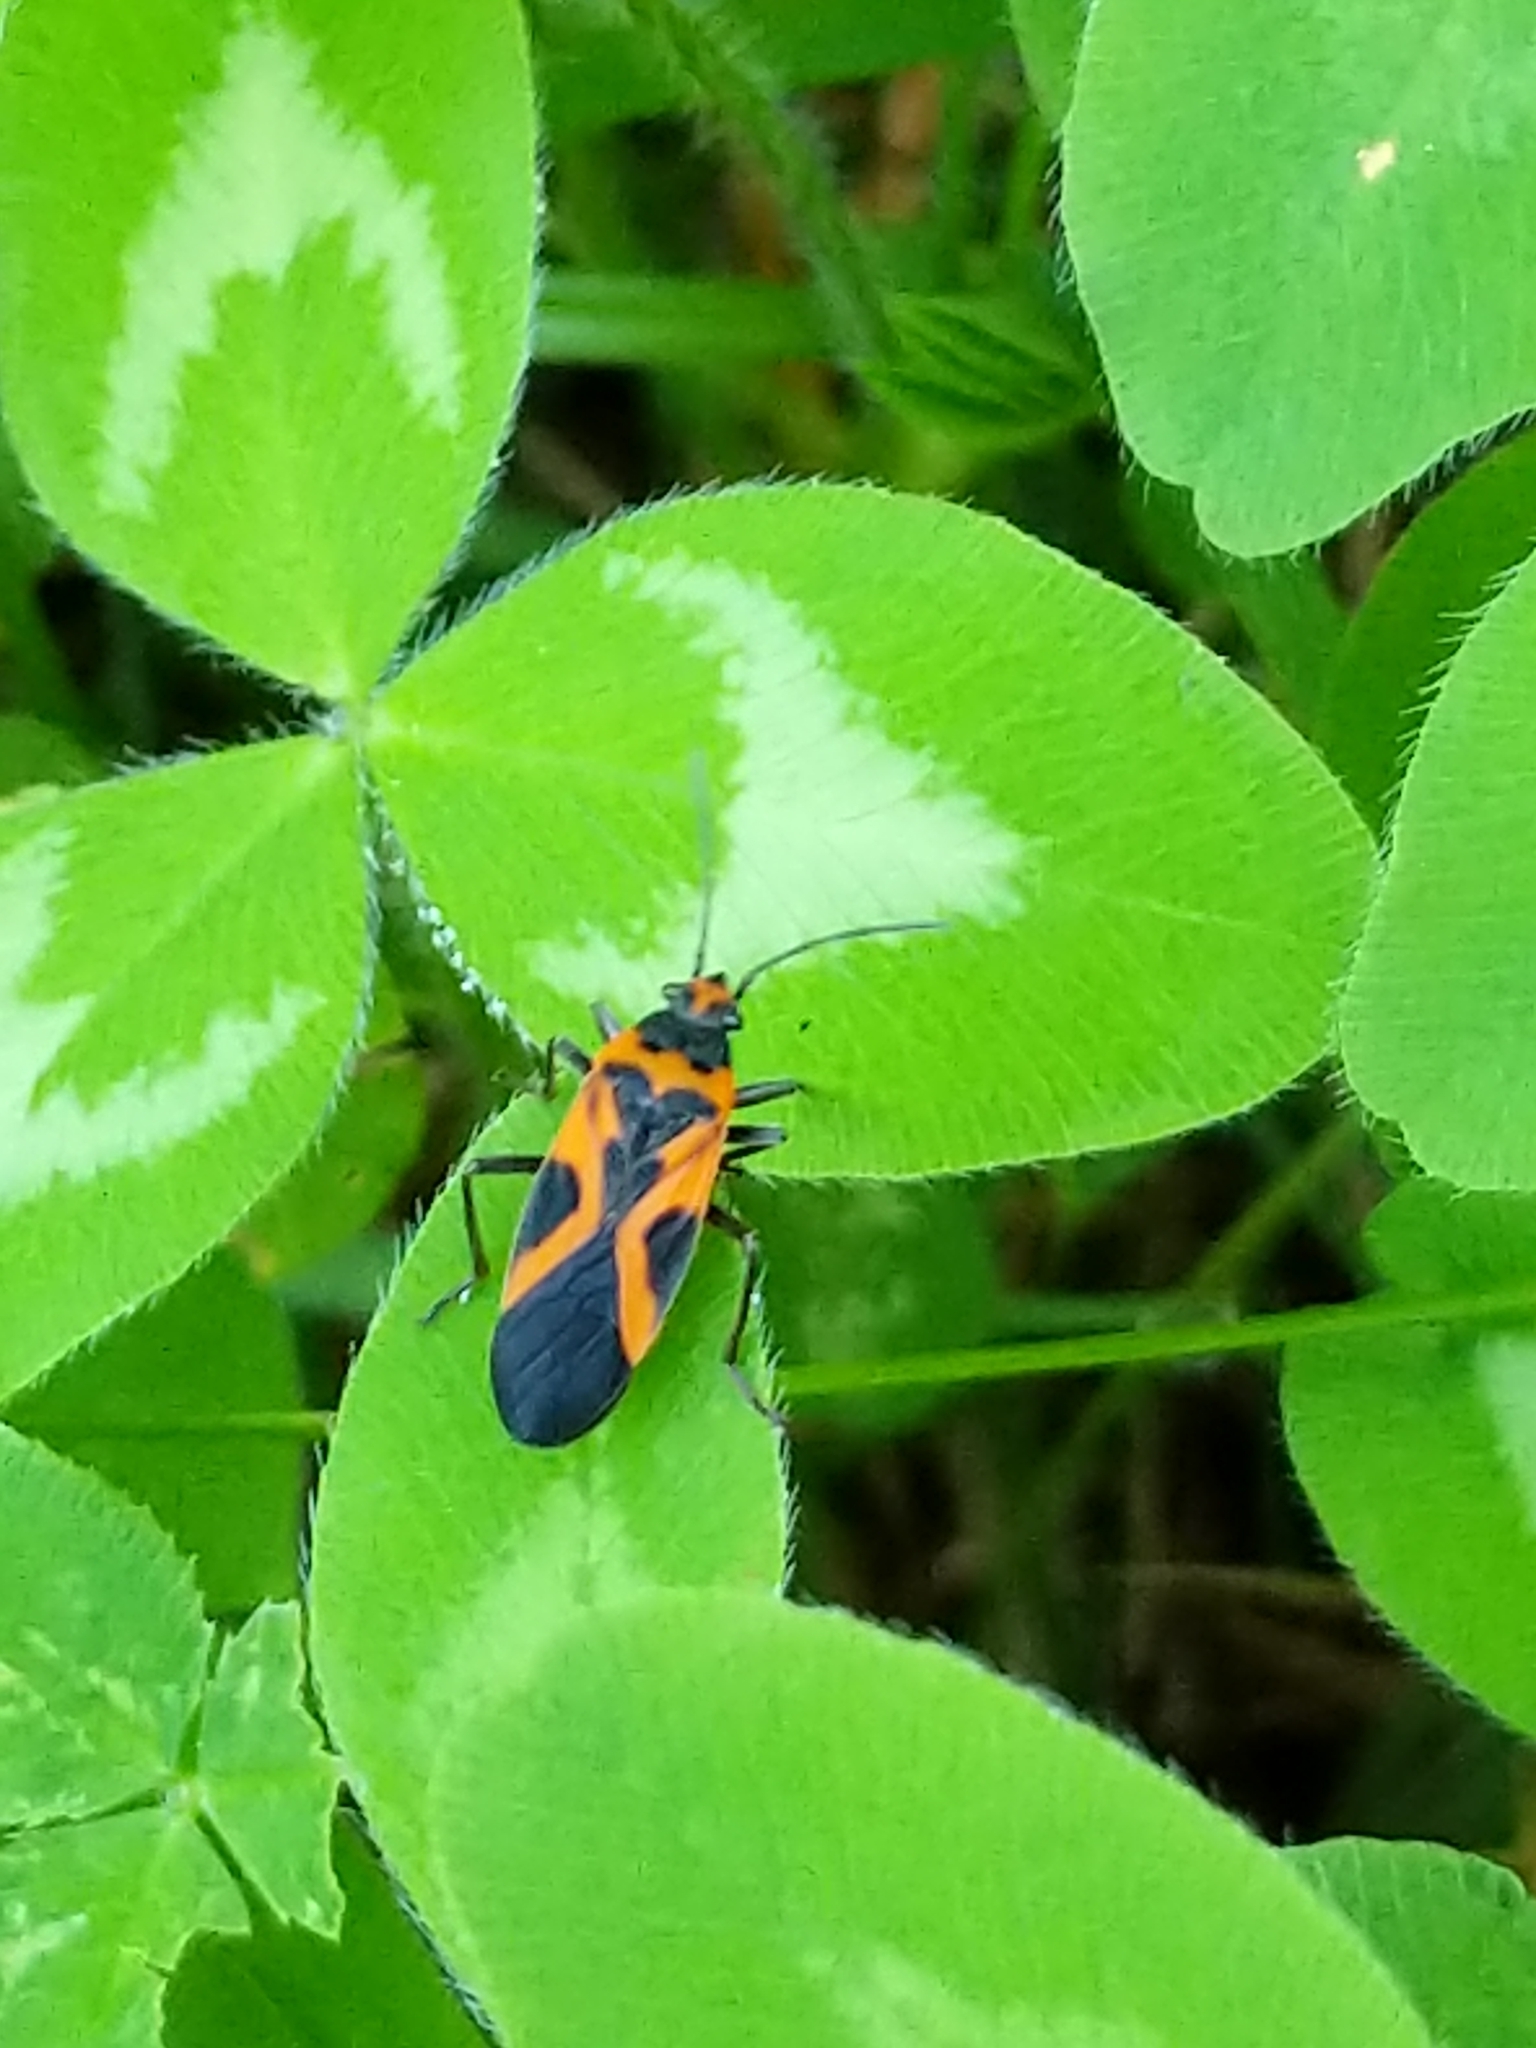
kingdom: Animalia
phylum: Arthropoda
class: Insecta
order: Hemiptera
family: Lygaeidae
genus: Lygaeus
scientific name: Lygaeus turcicus
